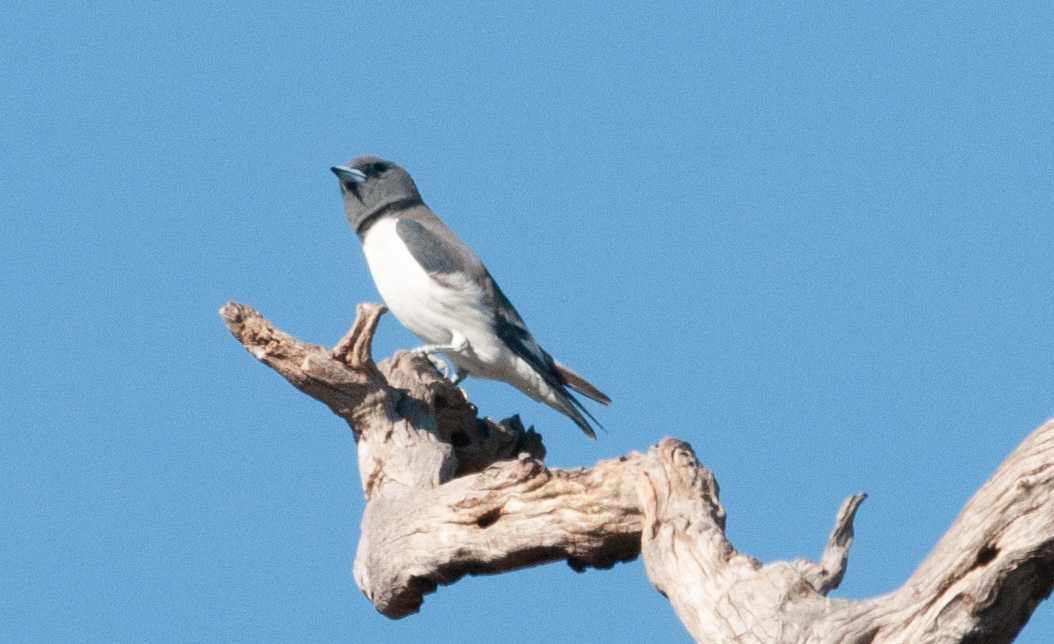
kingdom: Animalia
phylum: Chordata
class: Aves
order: Passeriformes
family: Artamidae
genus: Artamus
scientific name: Artamus leucoryn
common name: White-breasted woodswallow
